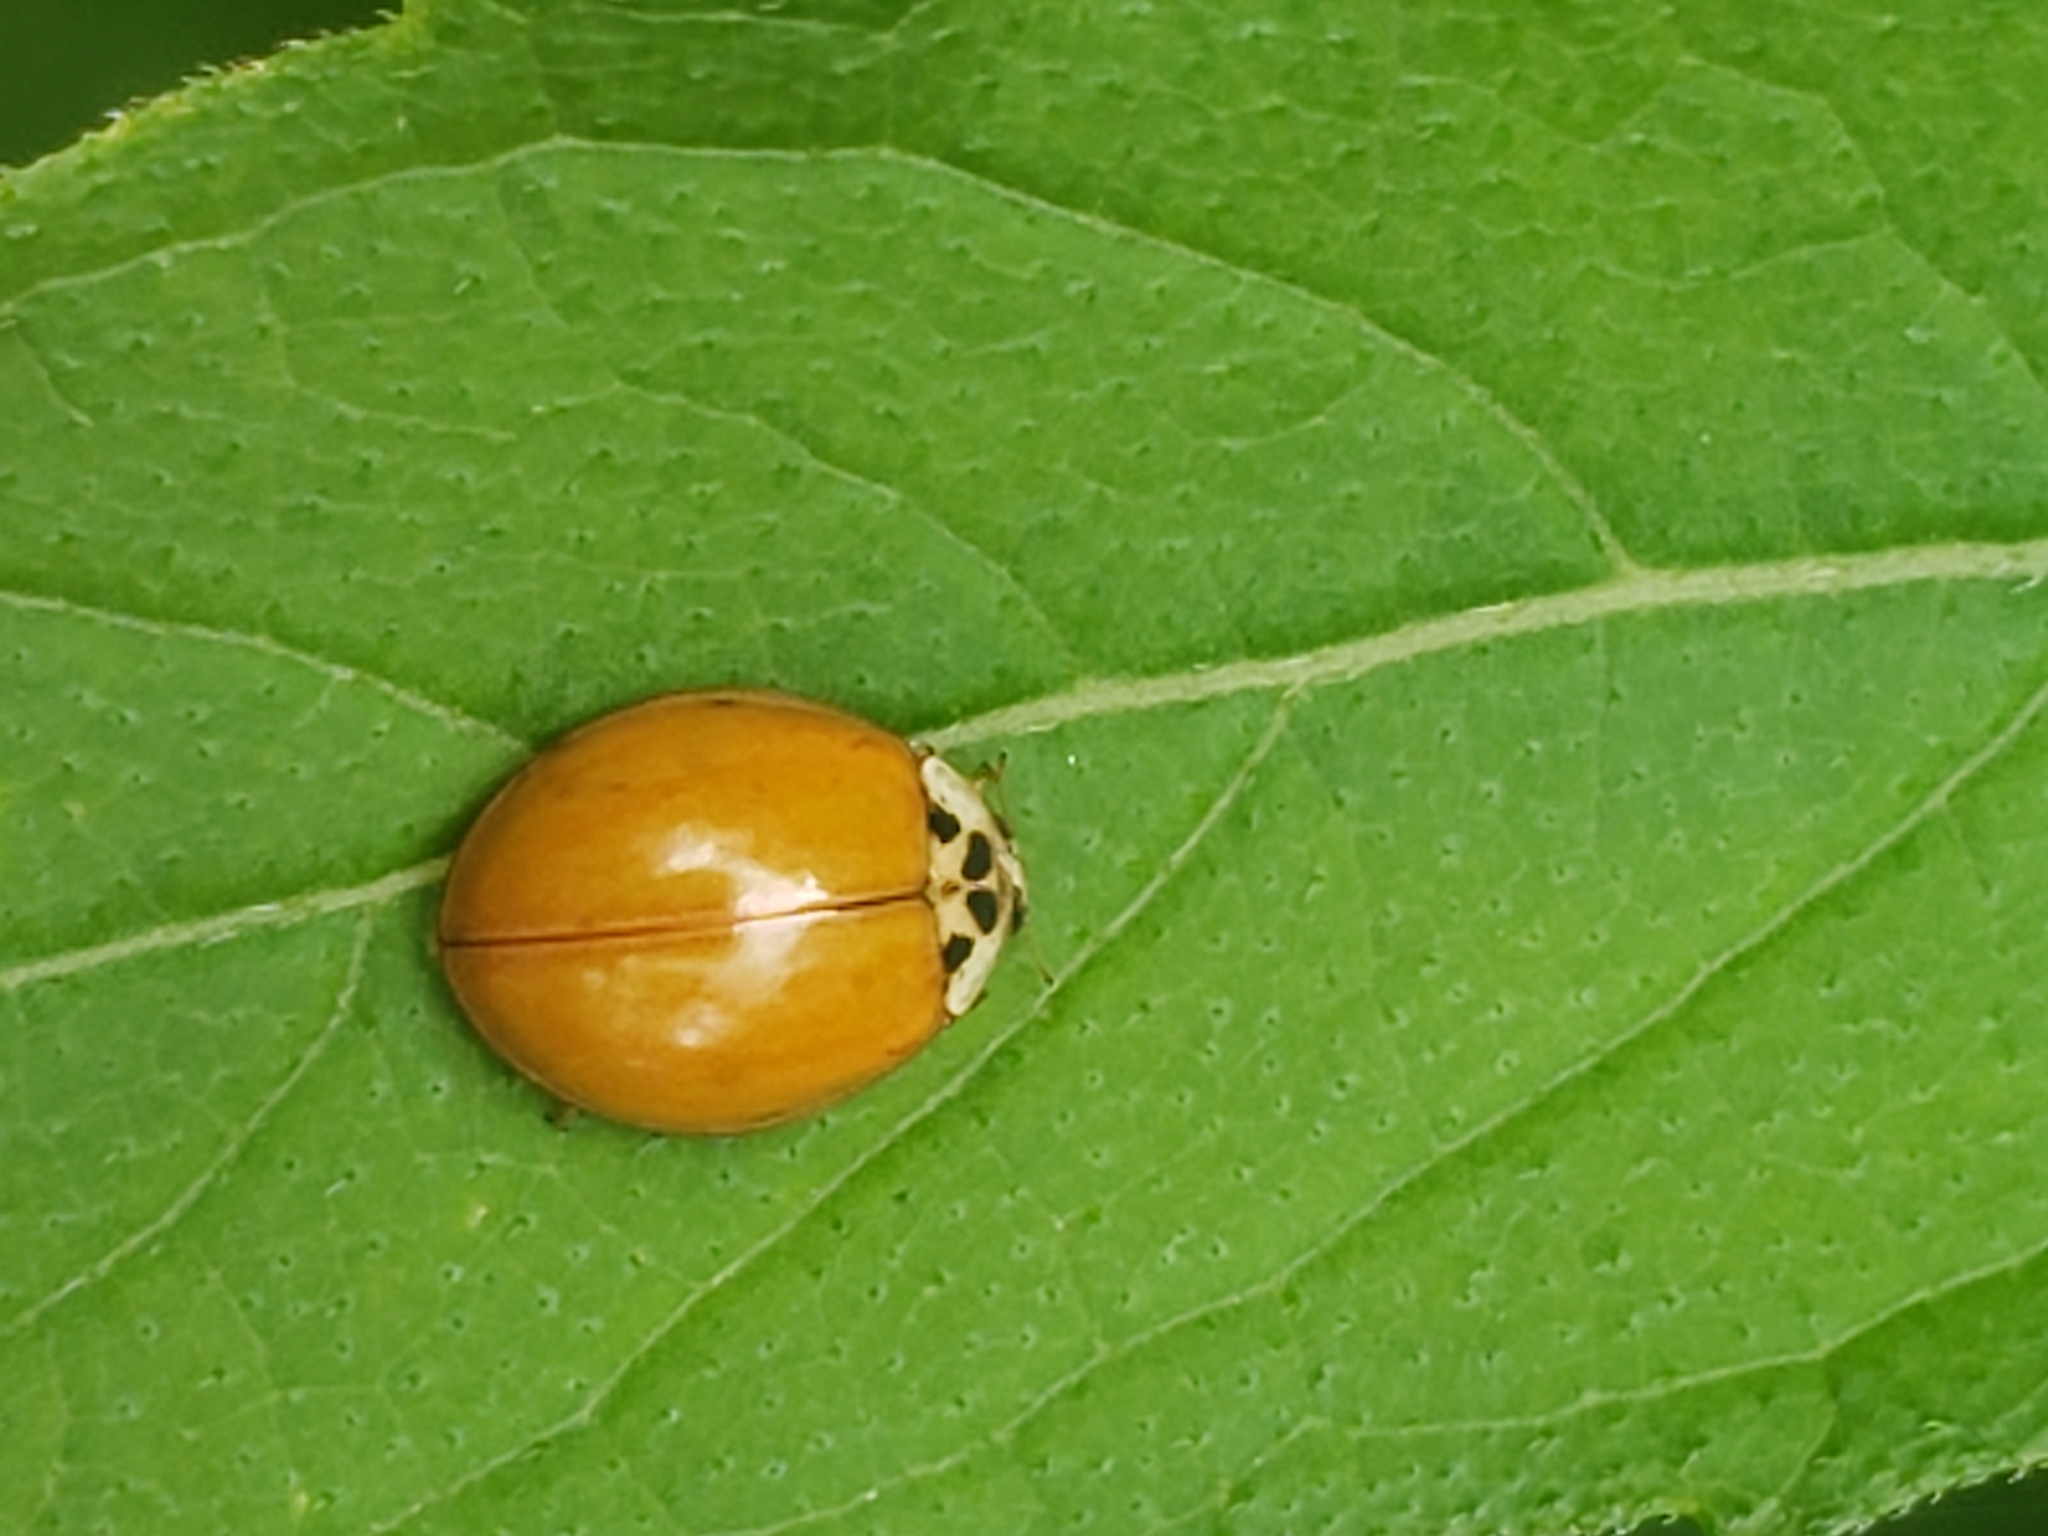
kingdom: Animalia
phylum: Arthropoda
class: Insecta
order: Coleoptera
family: Coccinellidae
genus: Harmonia
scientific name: Harmonia axyridis
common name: Harlequin ladybird
